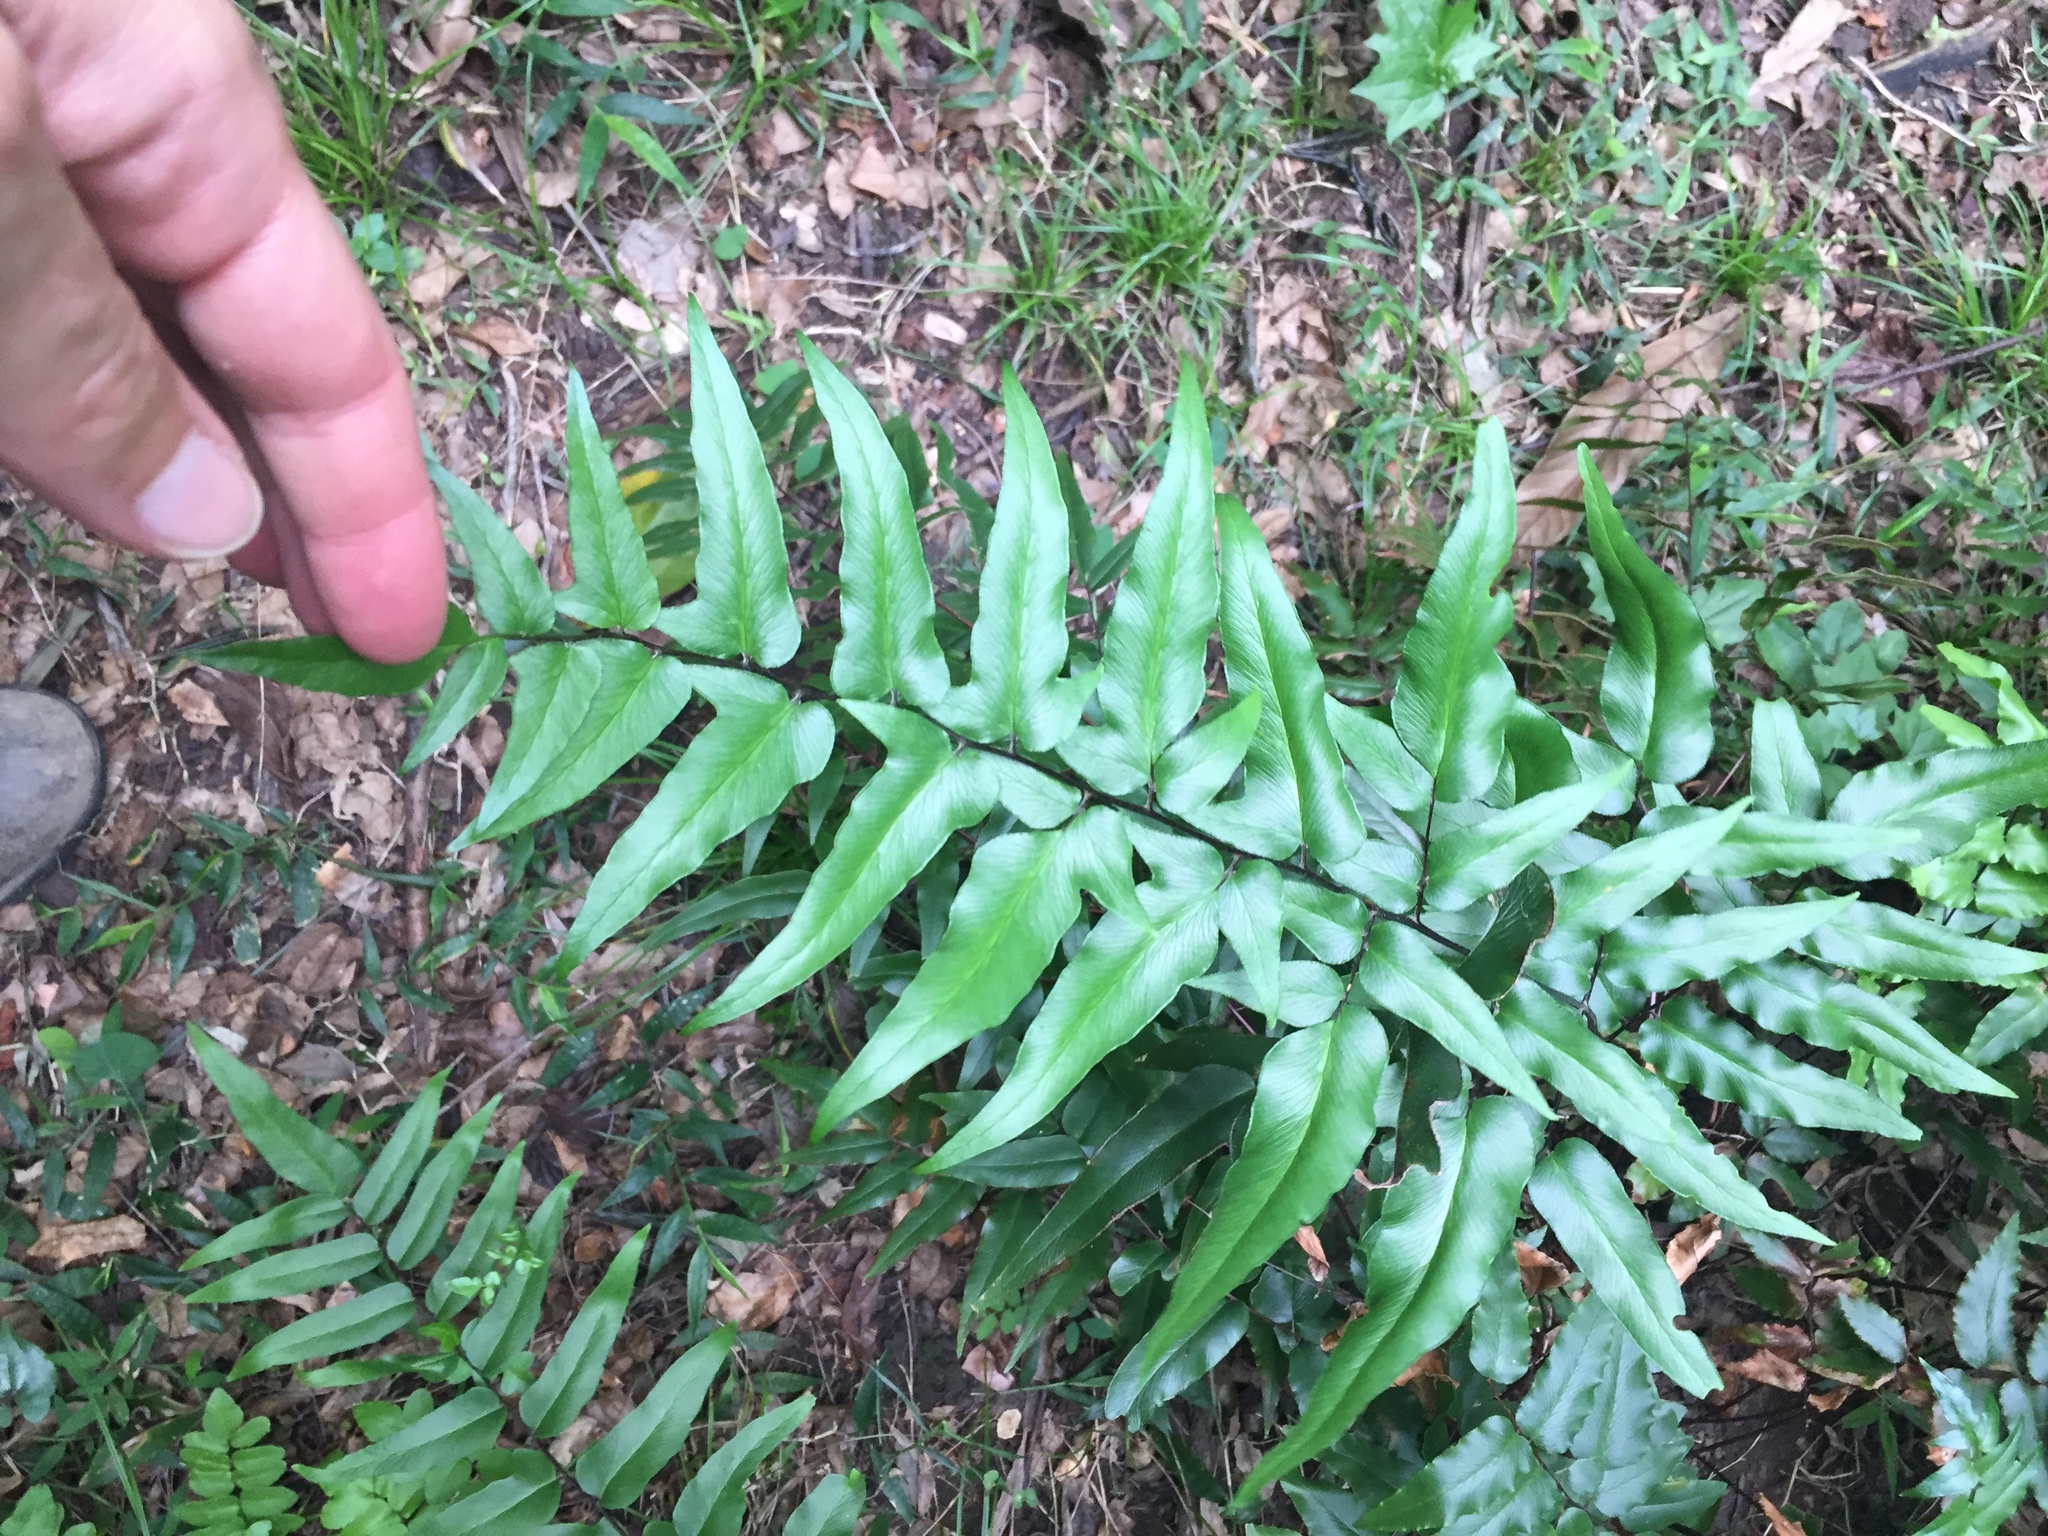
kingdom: Plantae
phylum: Tracheophyta
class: Polypodiopsida
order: Polypodiales
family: Pteridaceae
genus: Cheilanthes
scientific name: Cheilanthes viridis
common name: Green cliffbrake
